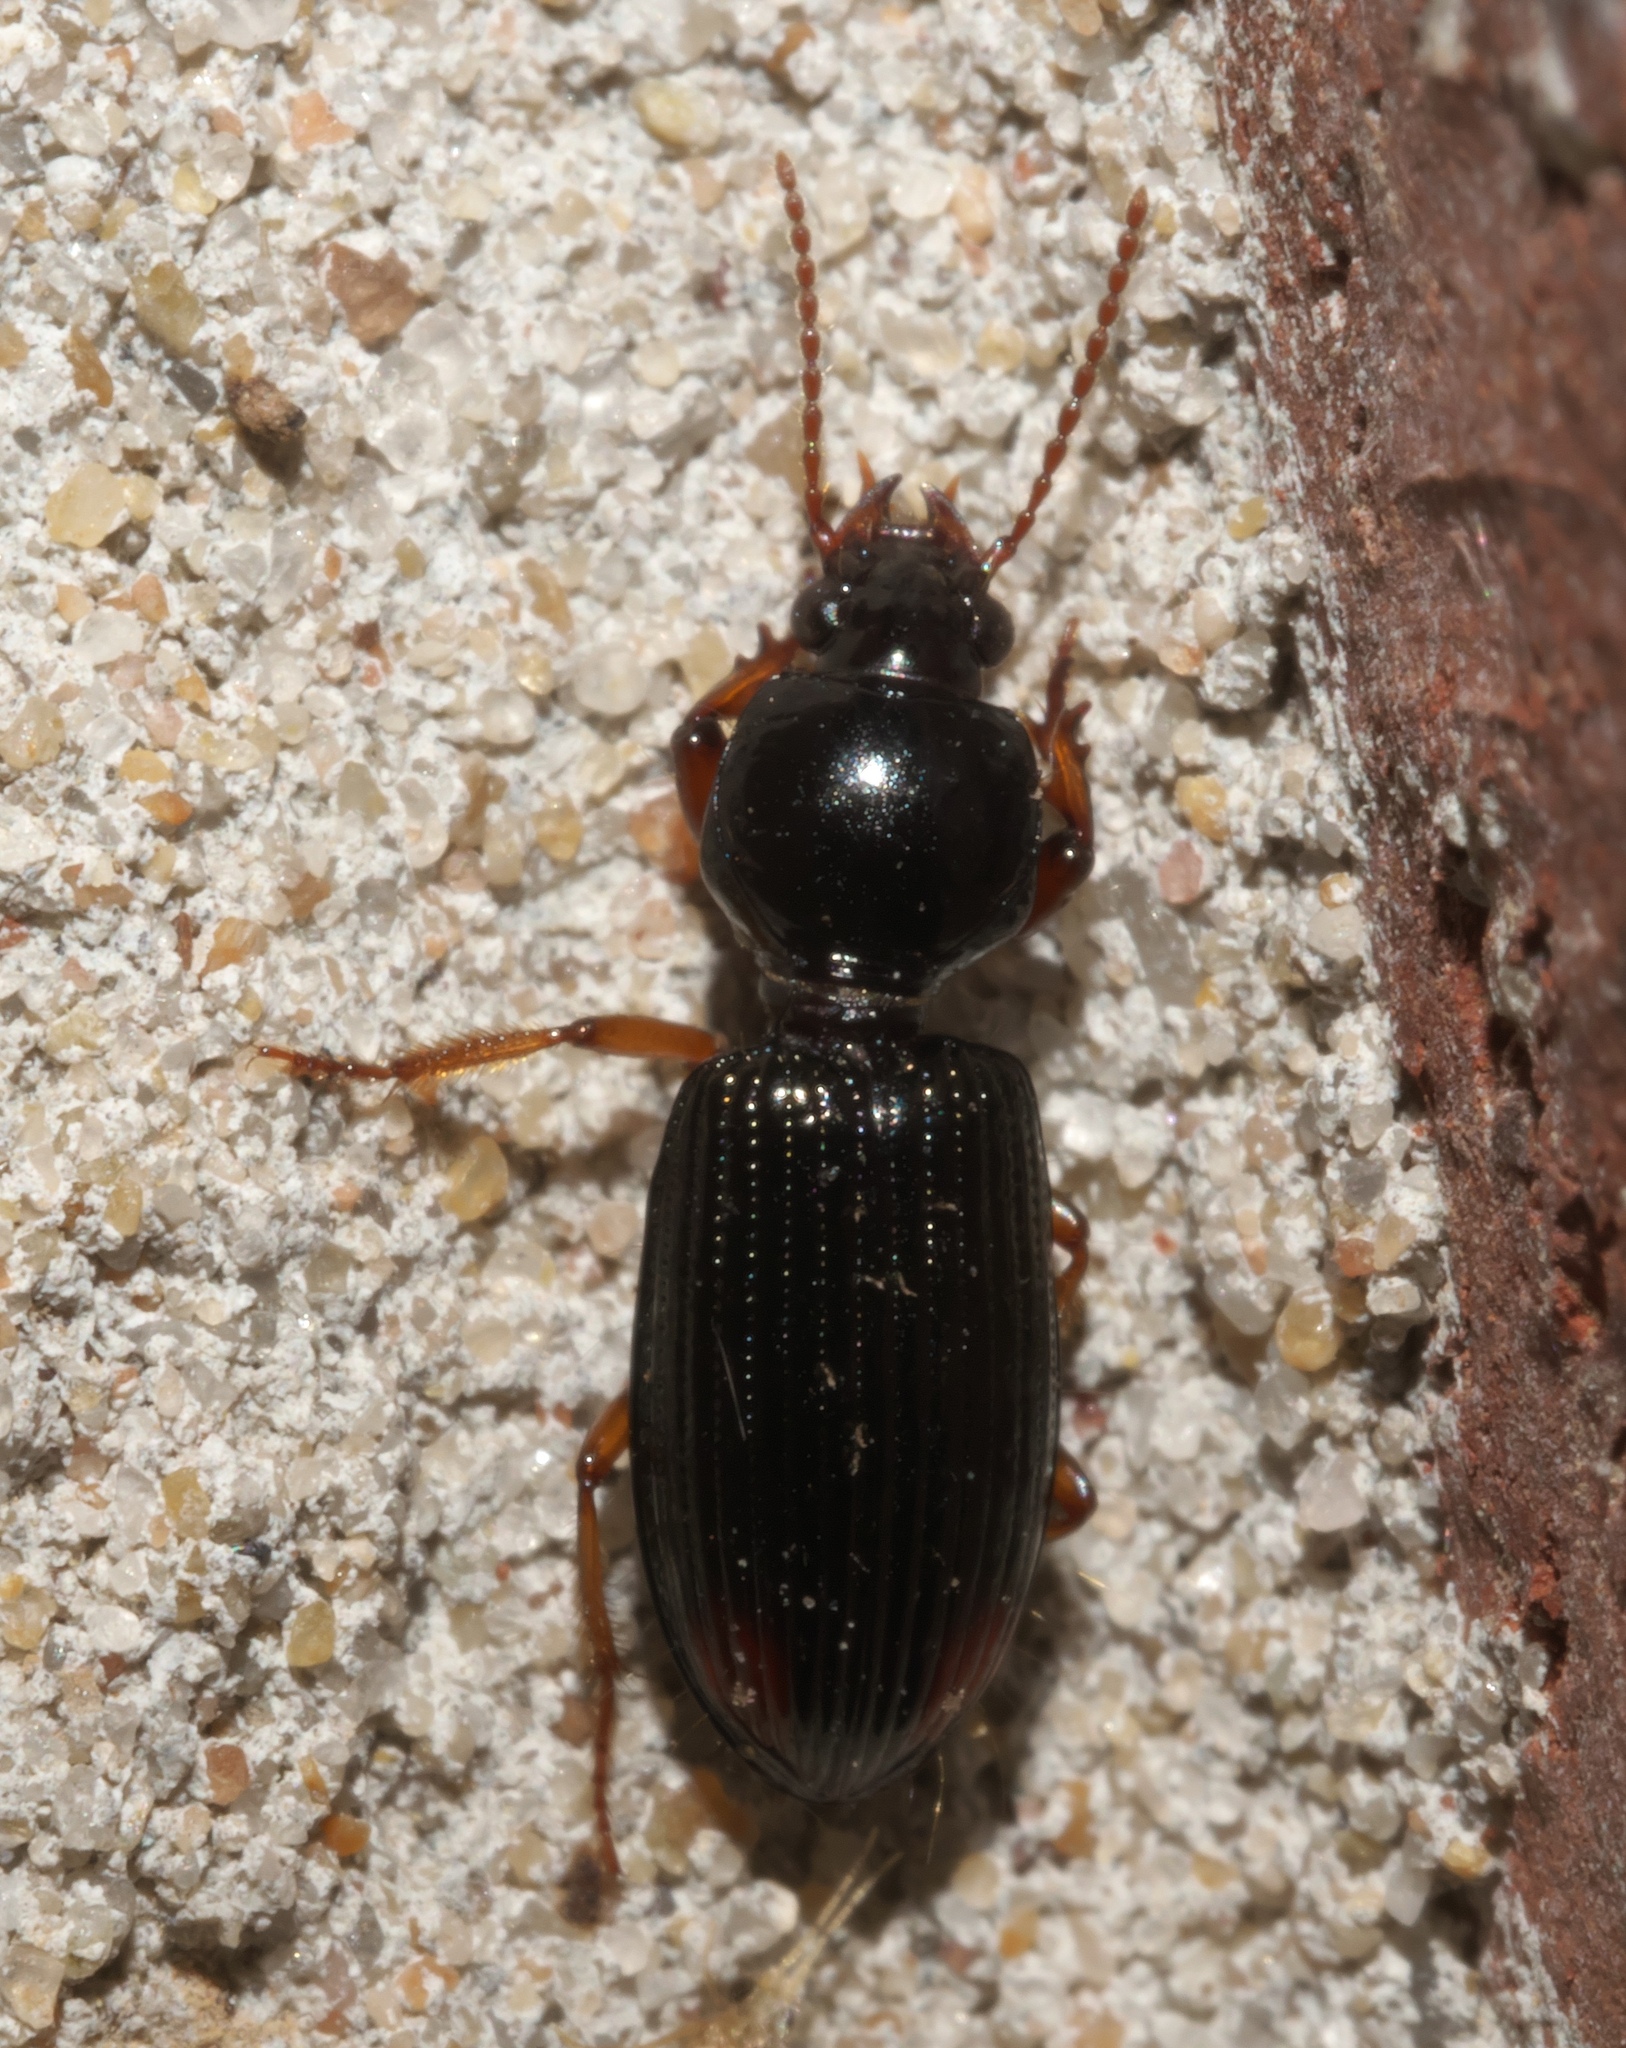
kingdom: Animalia
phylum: Arthropoda
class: Insecta
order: Coleoptera
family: Carabidae
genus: Aspidoglossa
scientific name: Aspidoglossa subangulata
